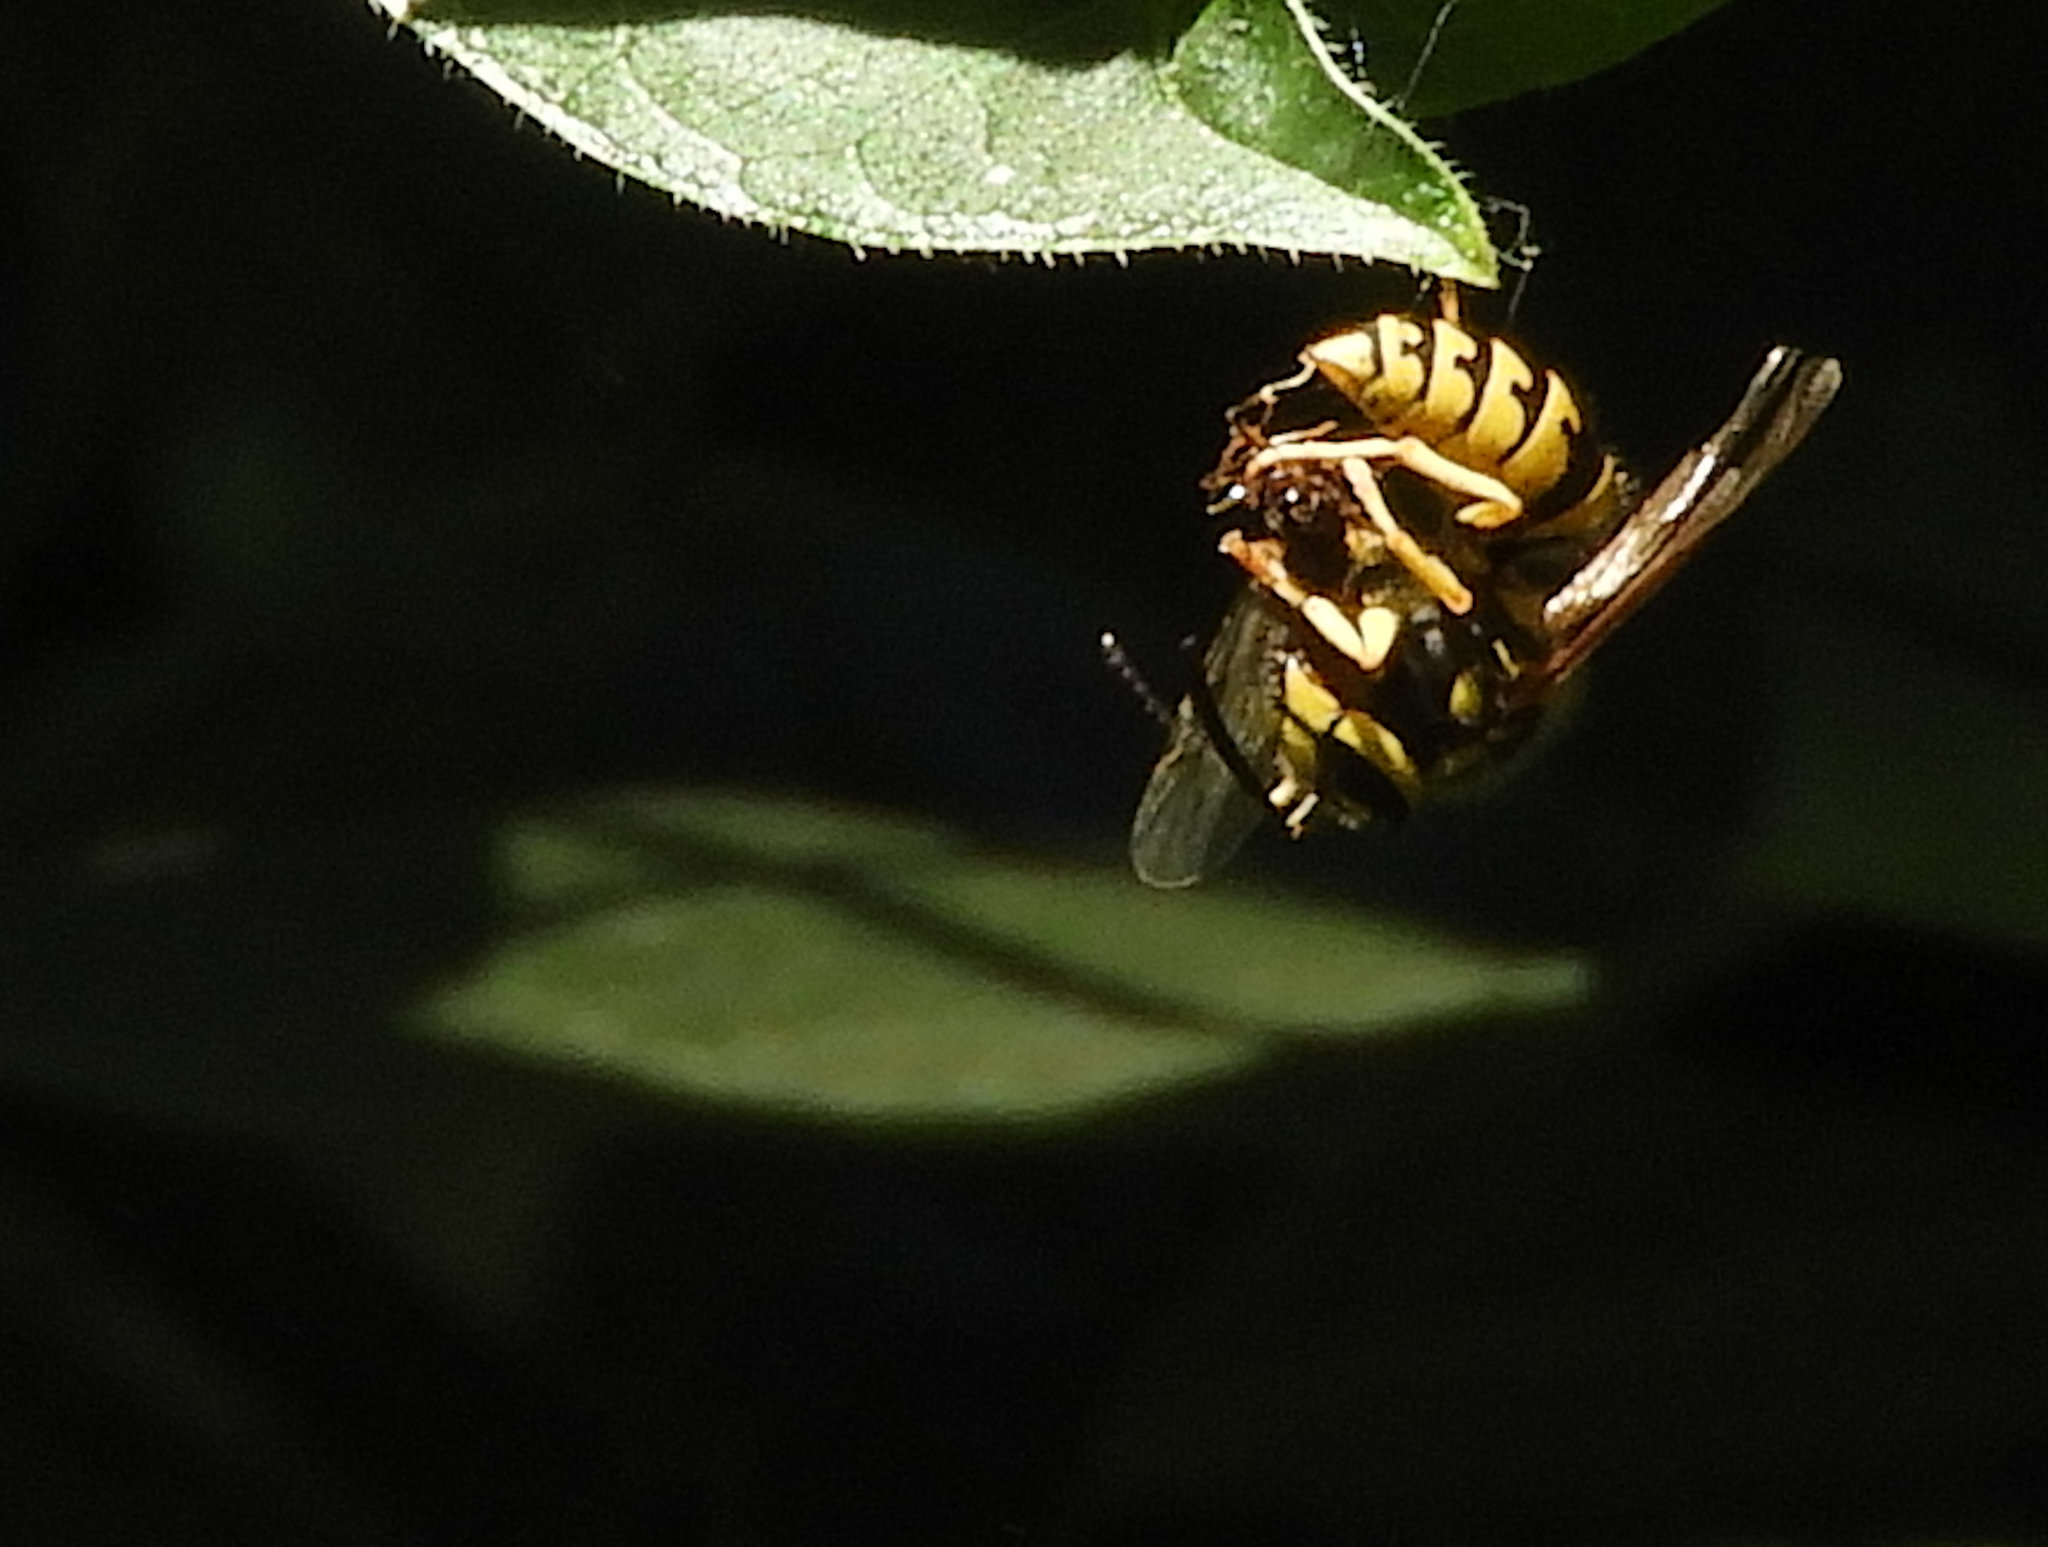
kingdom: Animalia
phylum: Arthropoda
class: Insecta
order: Hymenoptera
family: Vespidae
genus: Vespula
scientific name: Vespula pensylvanica
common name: Western yellowjacket
